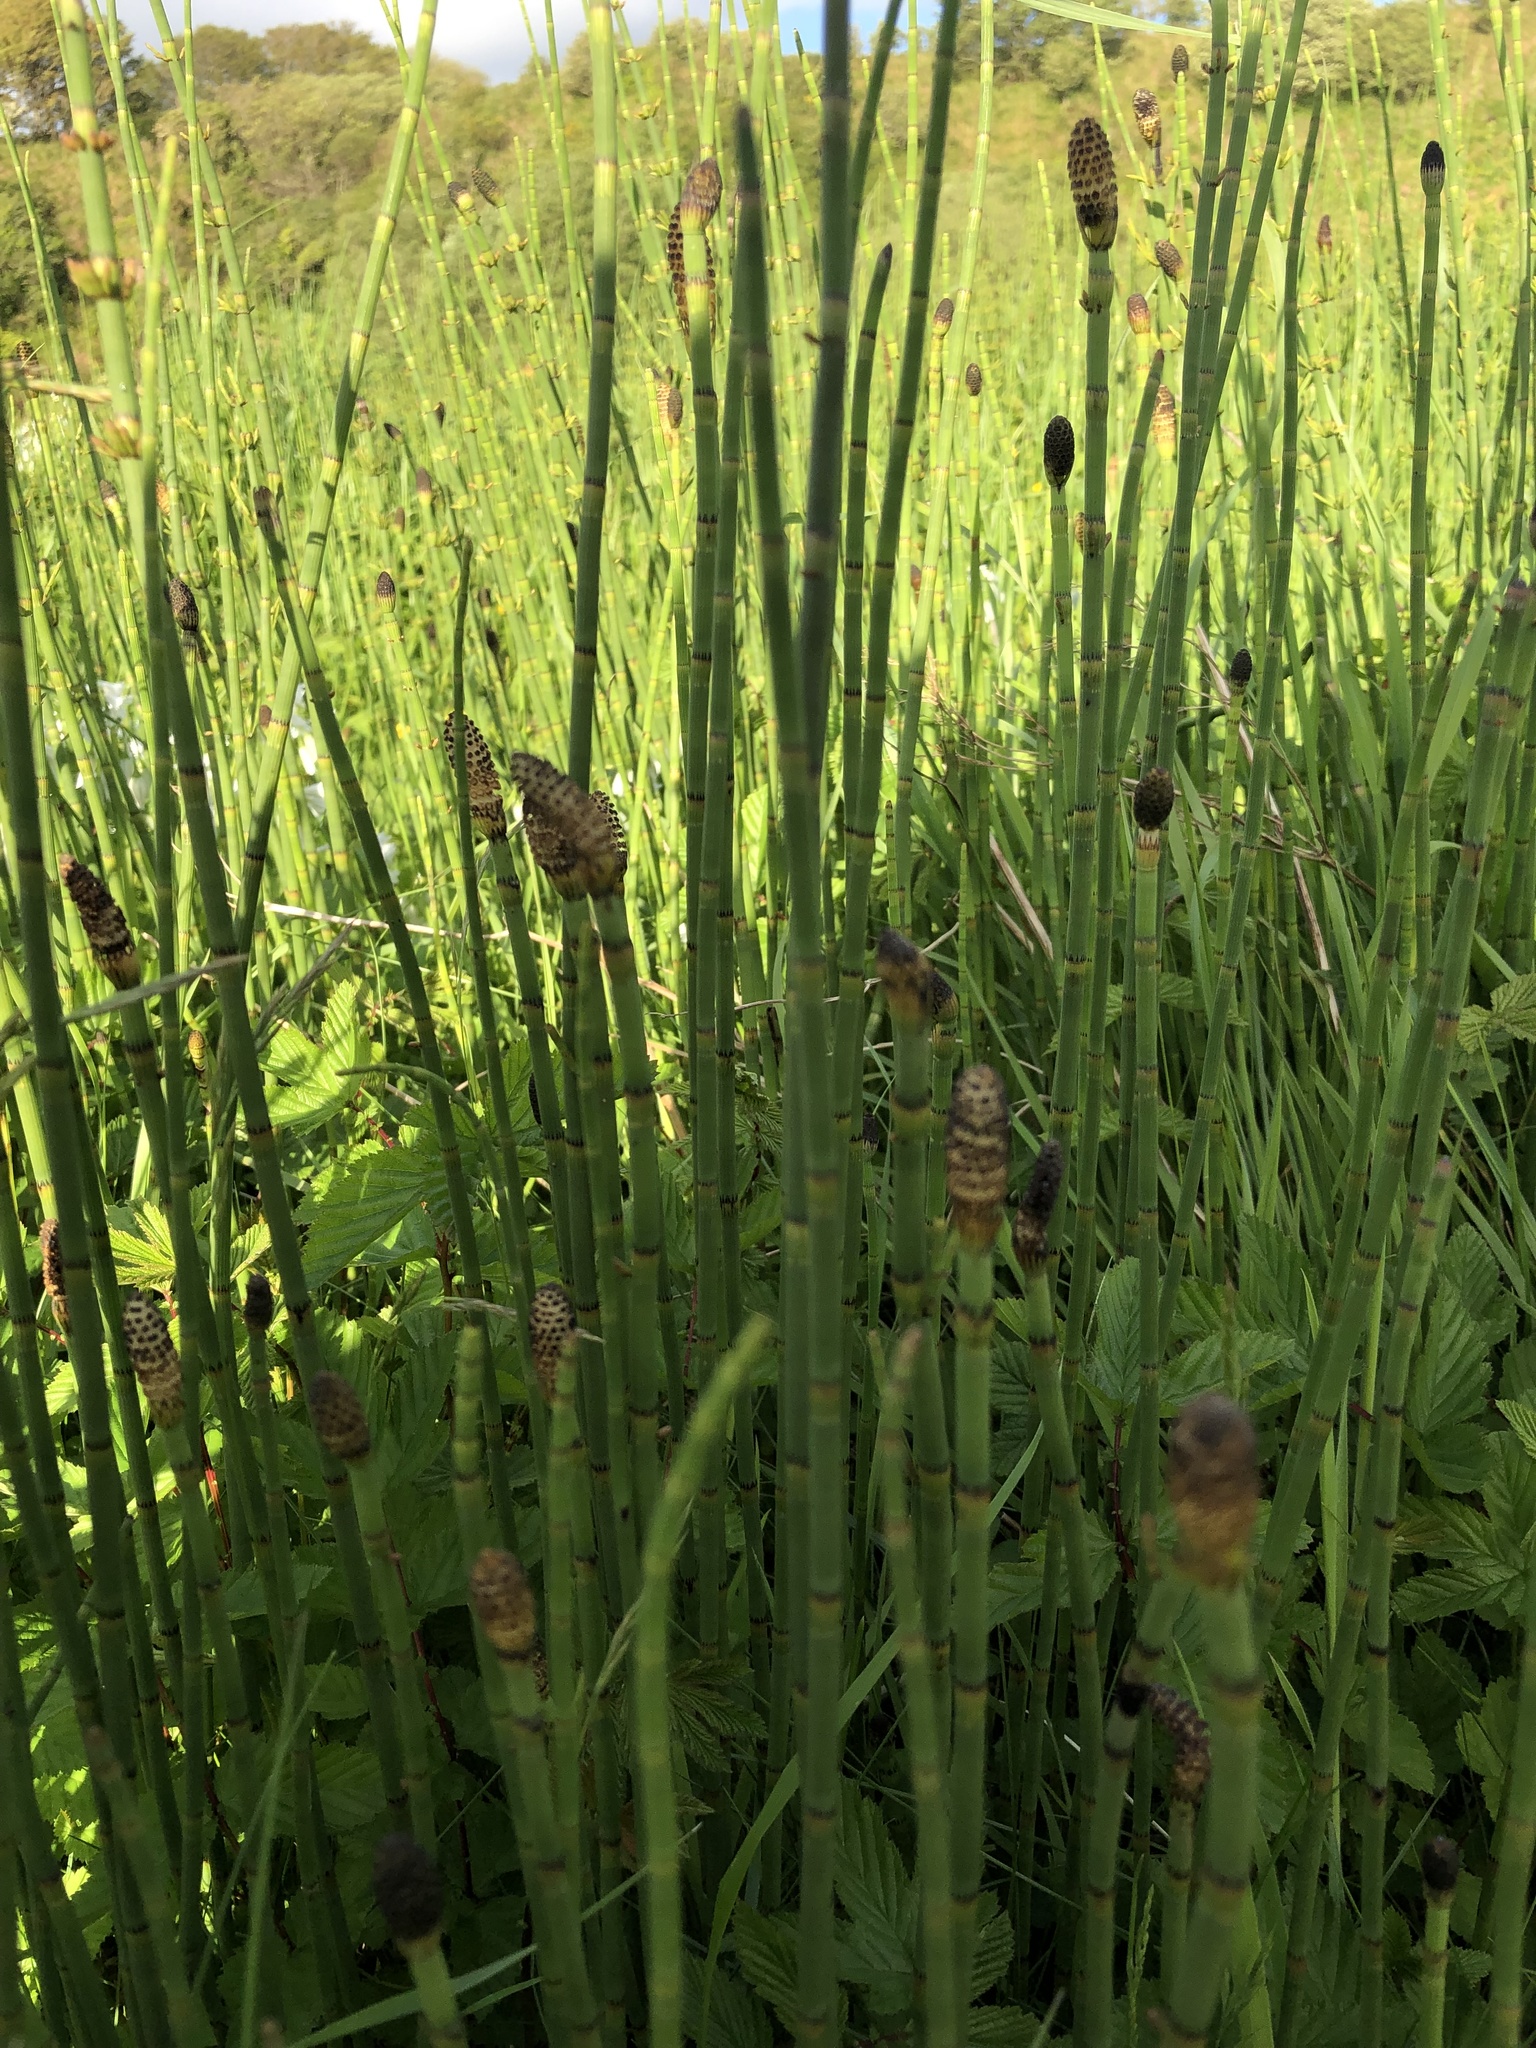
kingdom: Plantae
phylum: Tracheophyta
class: Polypodiopsida
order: Equisetales
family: Equisetaceae
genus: Equisetum
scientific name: Equisetum fluviatile
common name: Water horsetail
